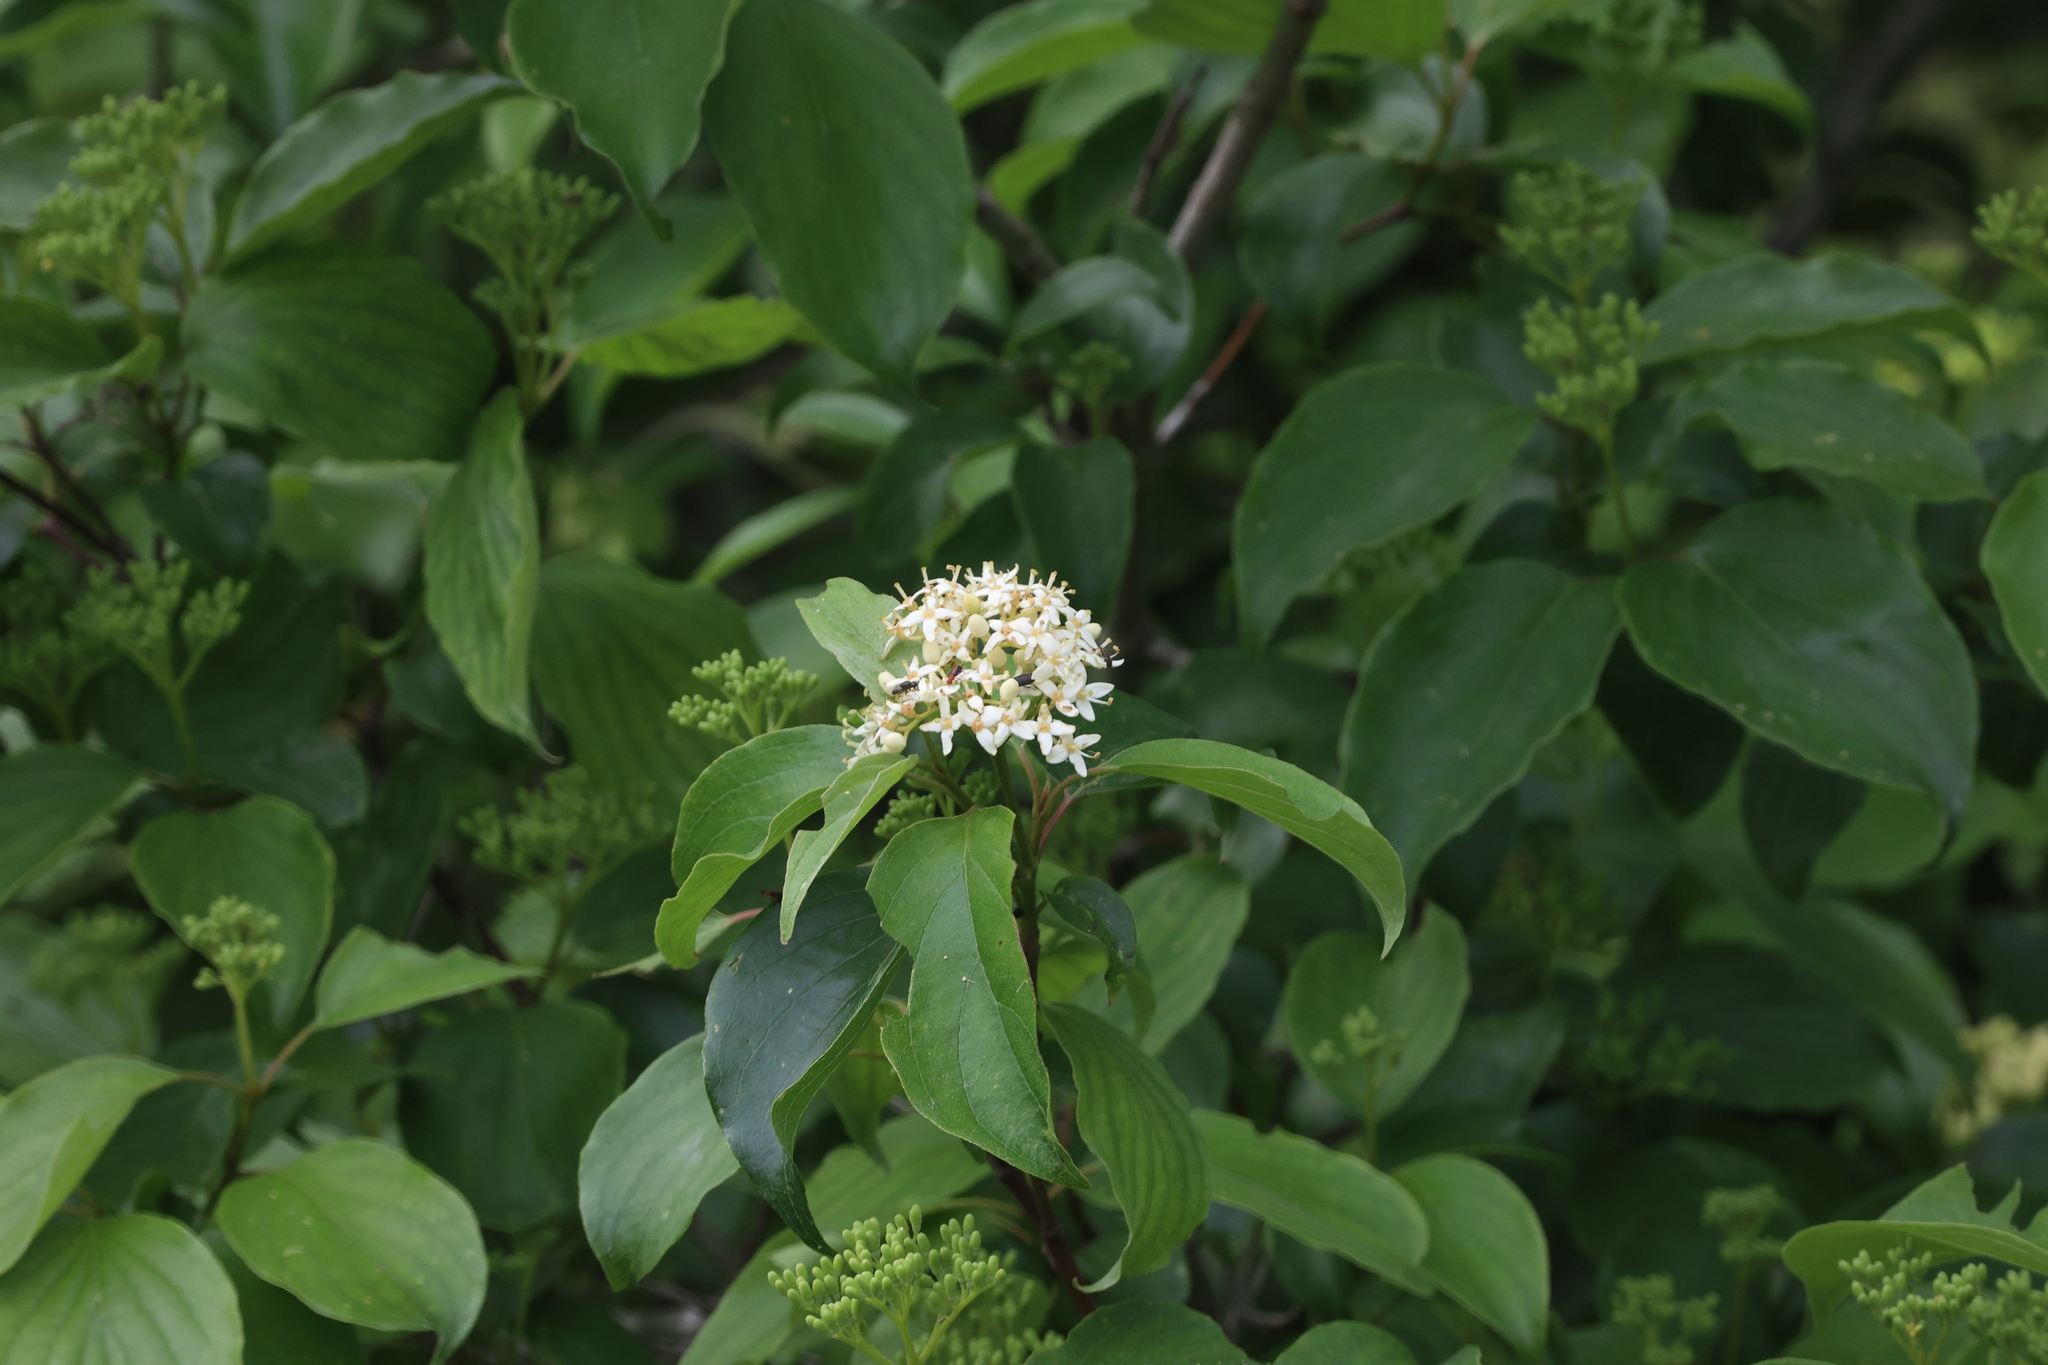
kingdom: Plantae
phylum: Tracheophyta
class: Magnoliopsida
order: Cornales
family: Cornaceae
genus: Cornus
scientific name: Cornus drummondii
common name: Rough-leaf dogwood
